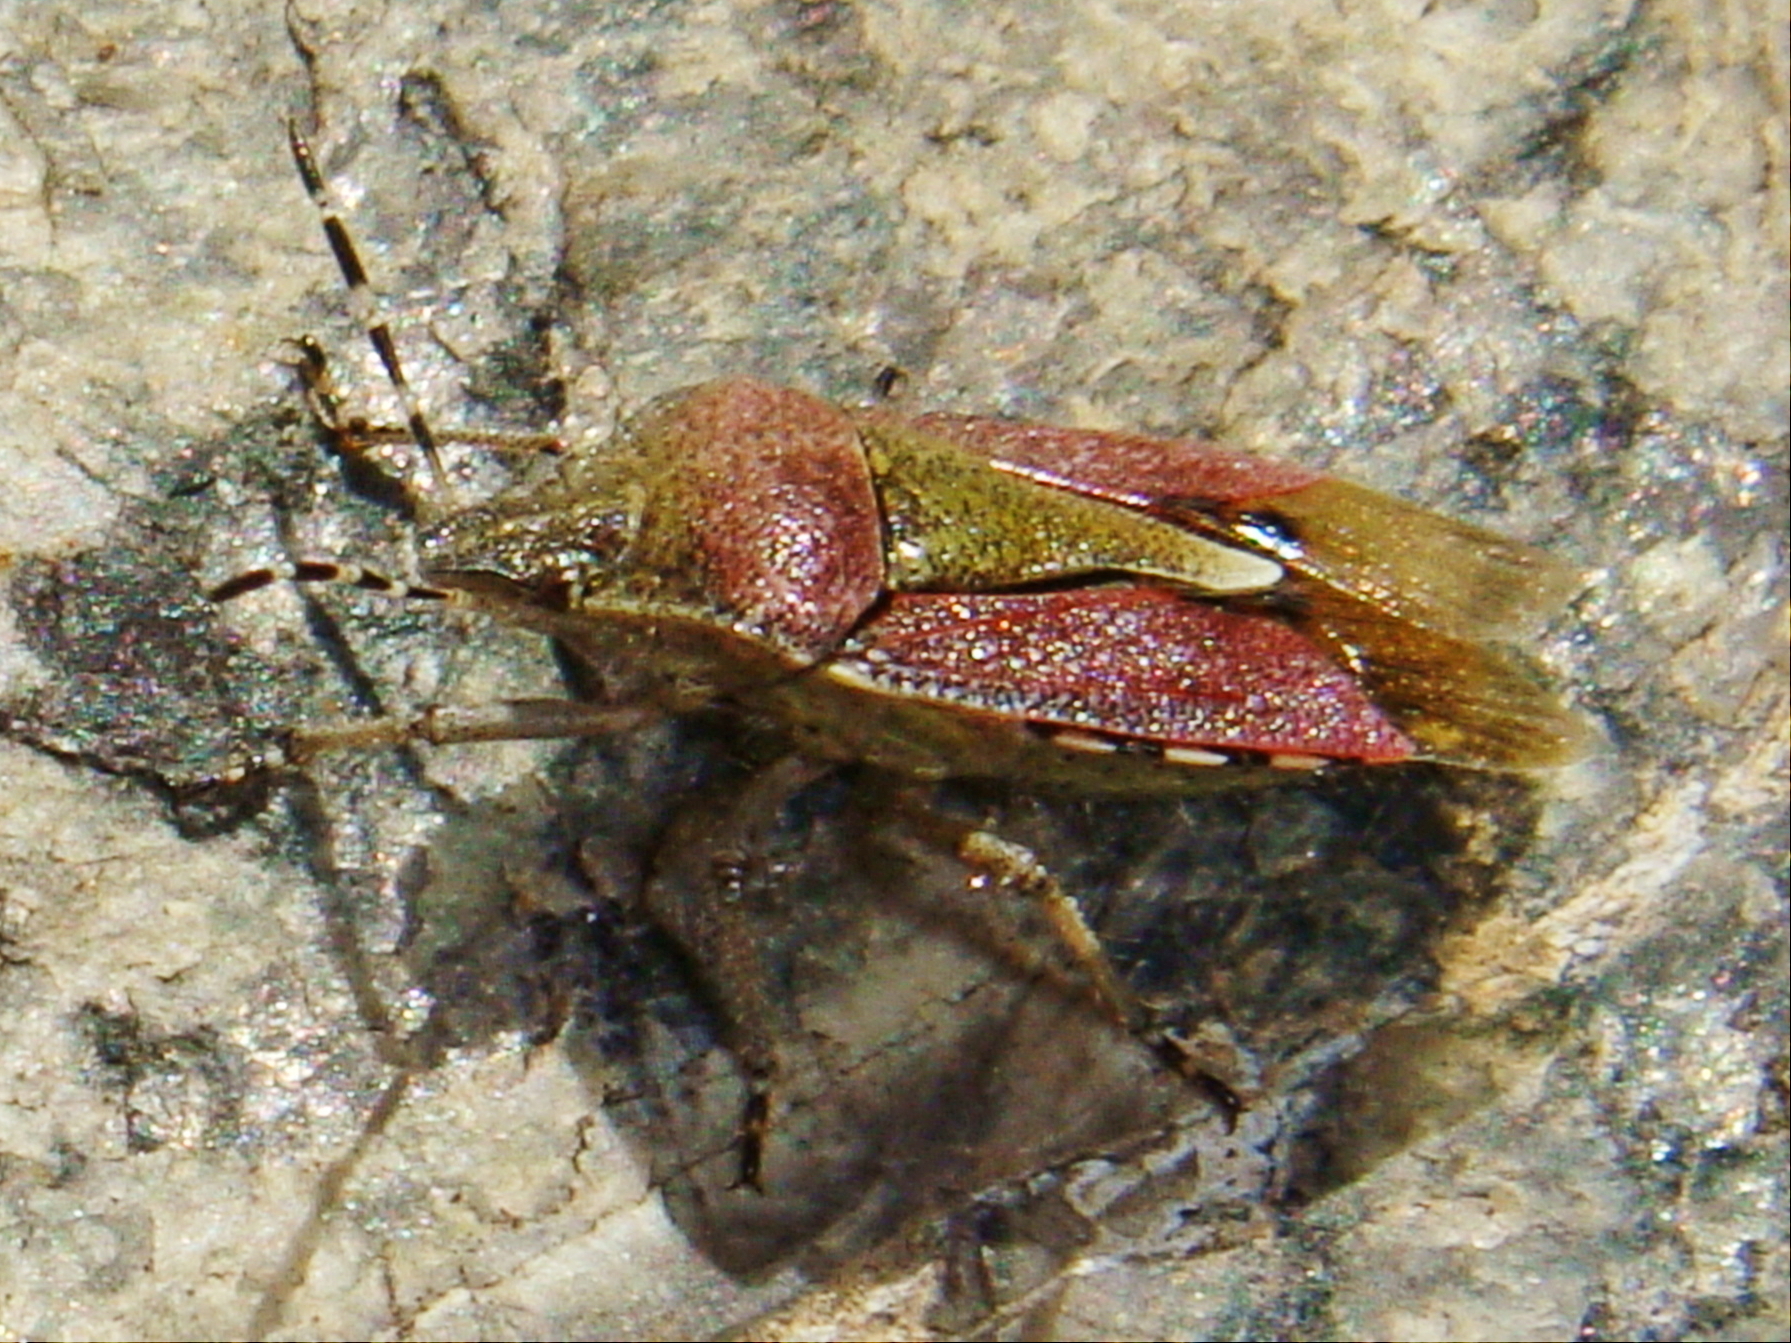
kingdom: Animalia
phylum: Arthropoda
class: Insecta
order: Hemiptera
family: Pentatomidae
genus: Dolycoris
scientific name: Dolycoris baccarum
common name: Sloe bug
